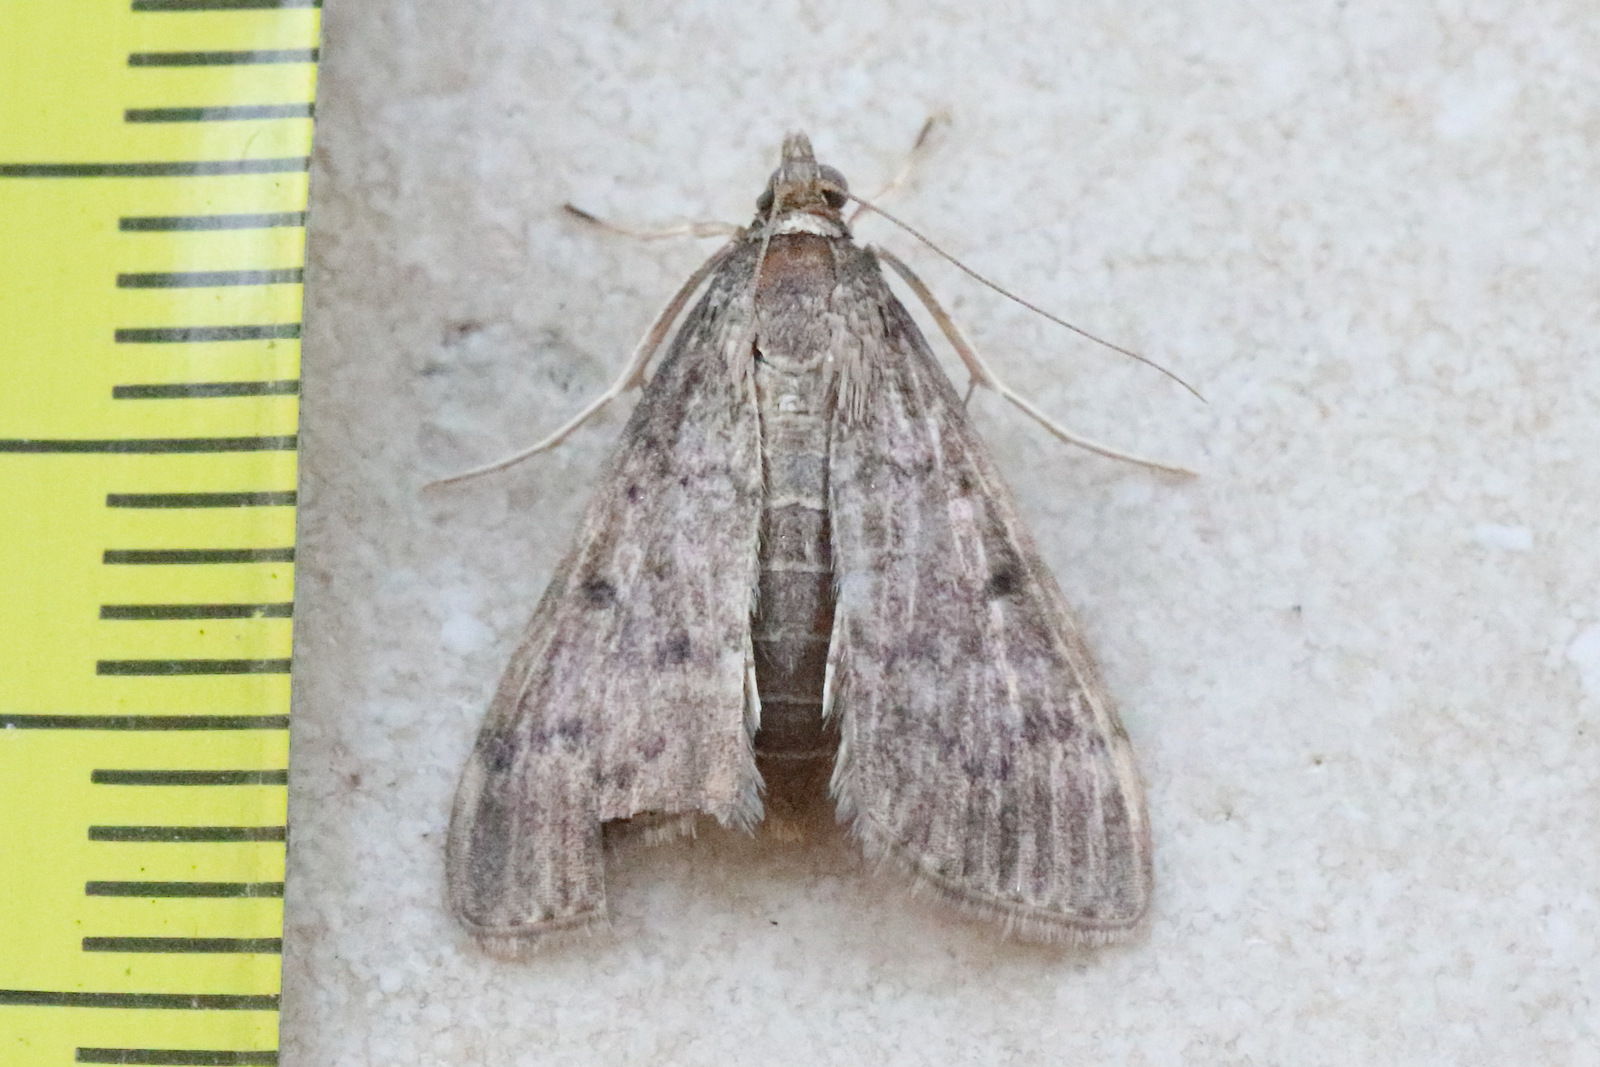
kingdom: Animalia
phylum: Arthropoda
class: Insecta
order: Lepidoptera
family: Crambidae
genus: Herpetogramma
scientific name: Herpetogramma licarsisalis
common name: Grass webworm
